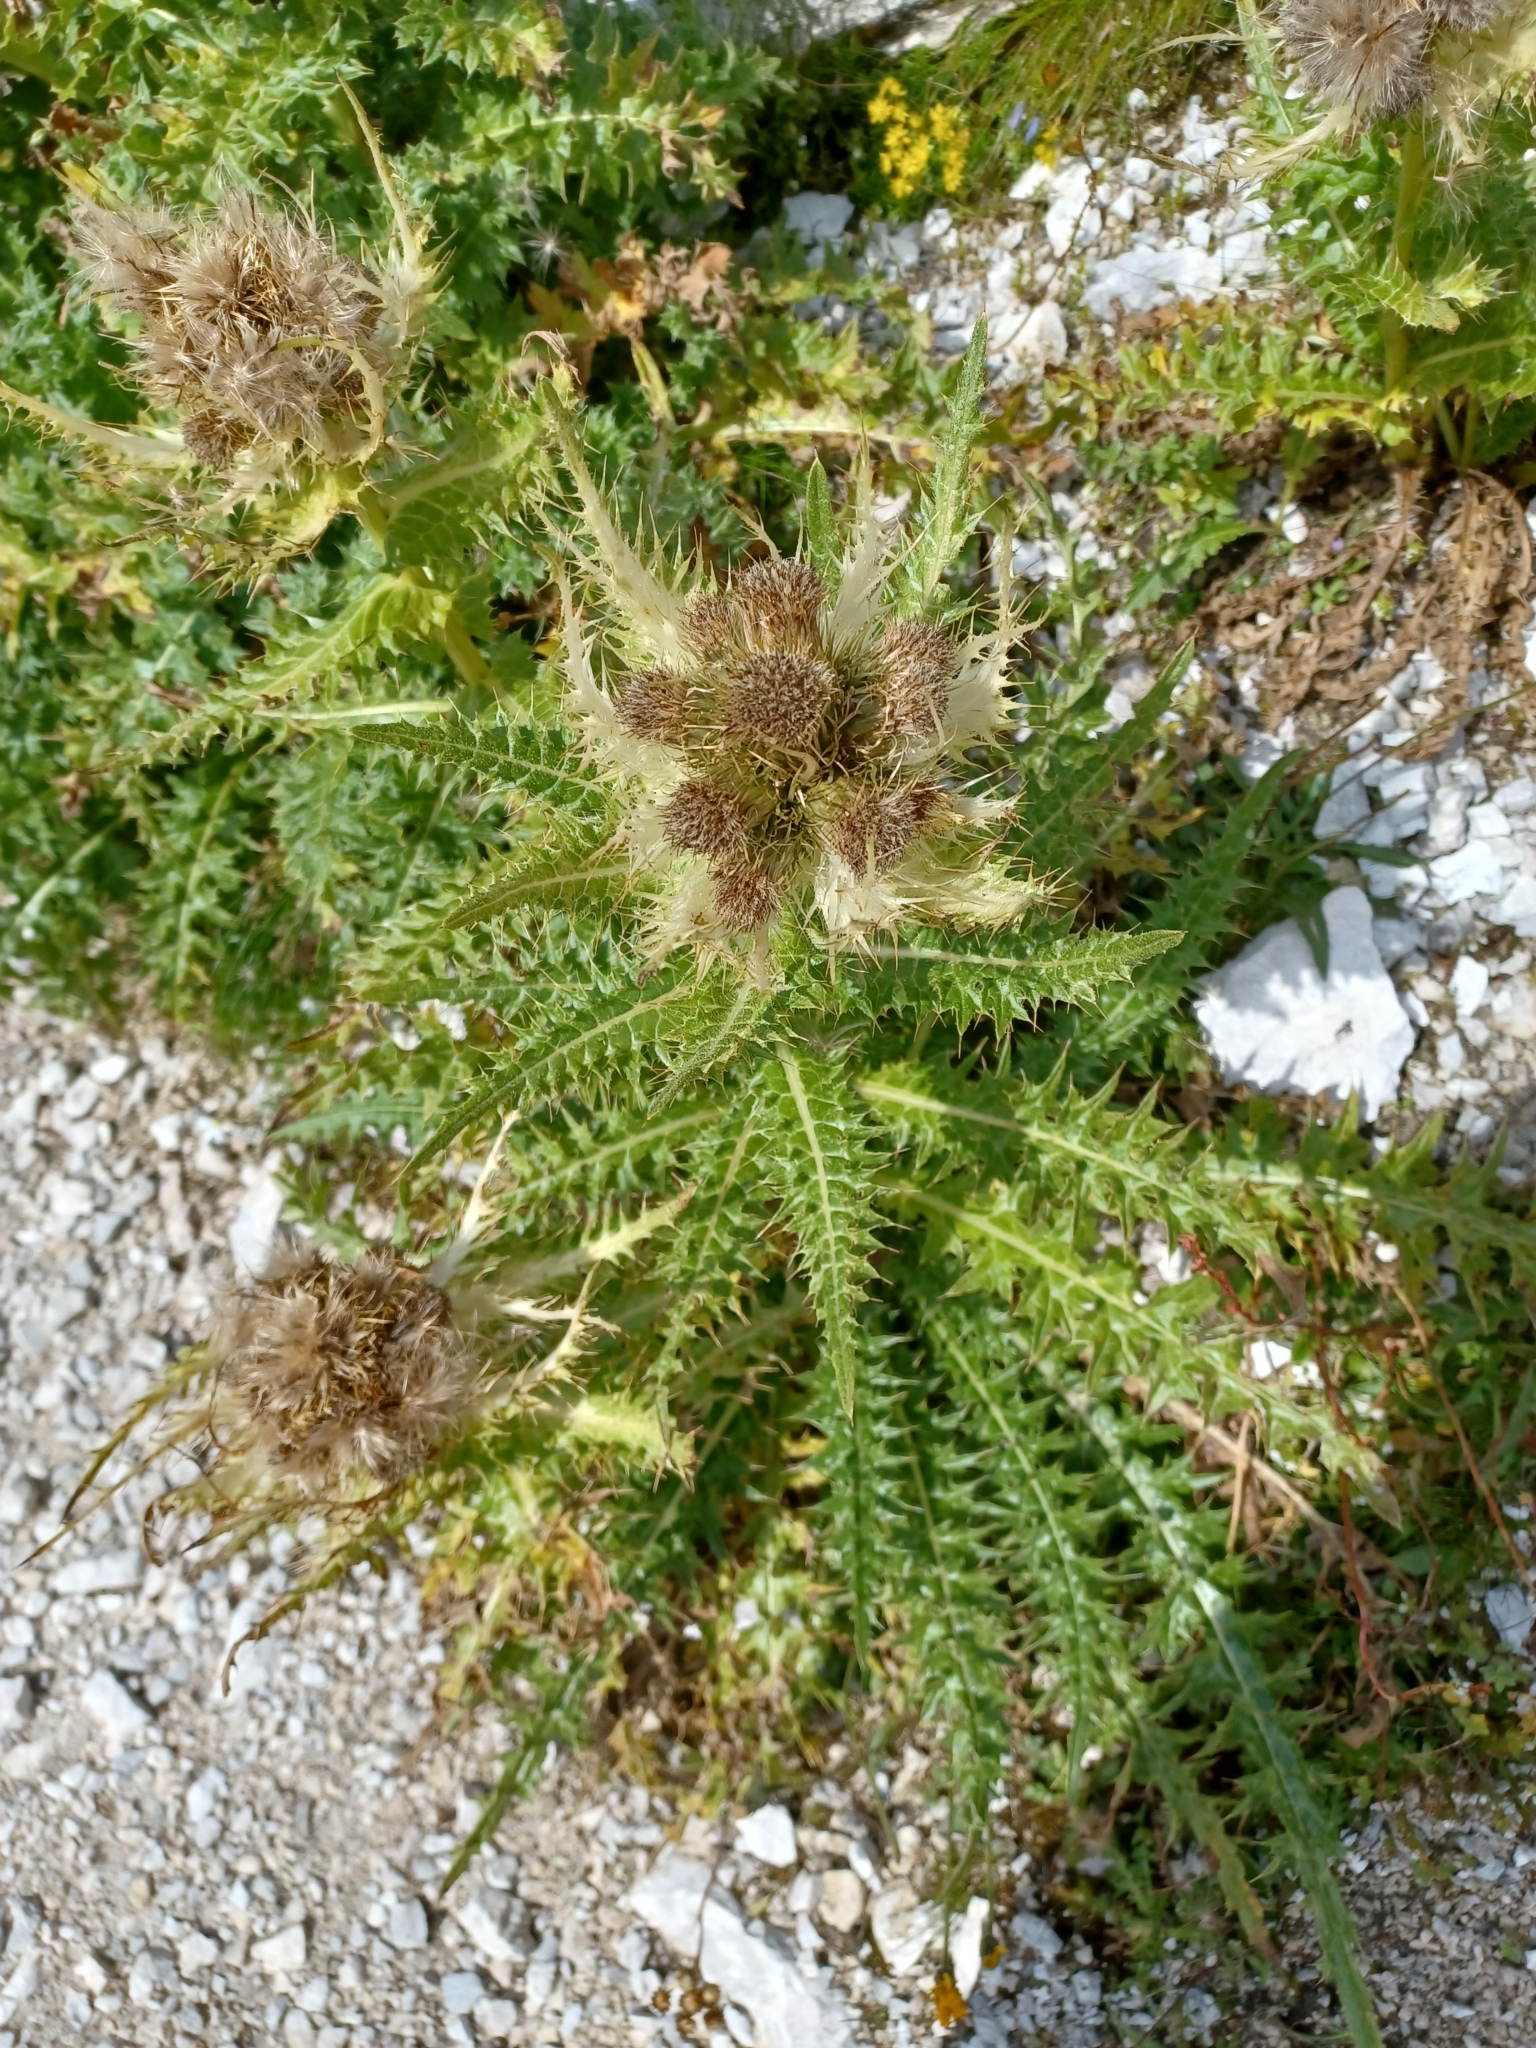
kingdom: Plantae
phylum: Tracheophyta
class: Magnoliopsida
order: Asterales
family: Asteraceae
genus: Cirsium
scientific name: Cirsium spinosissimum
